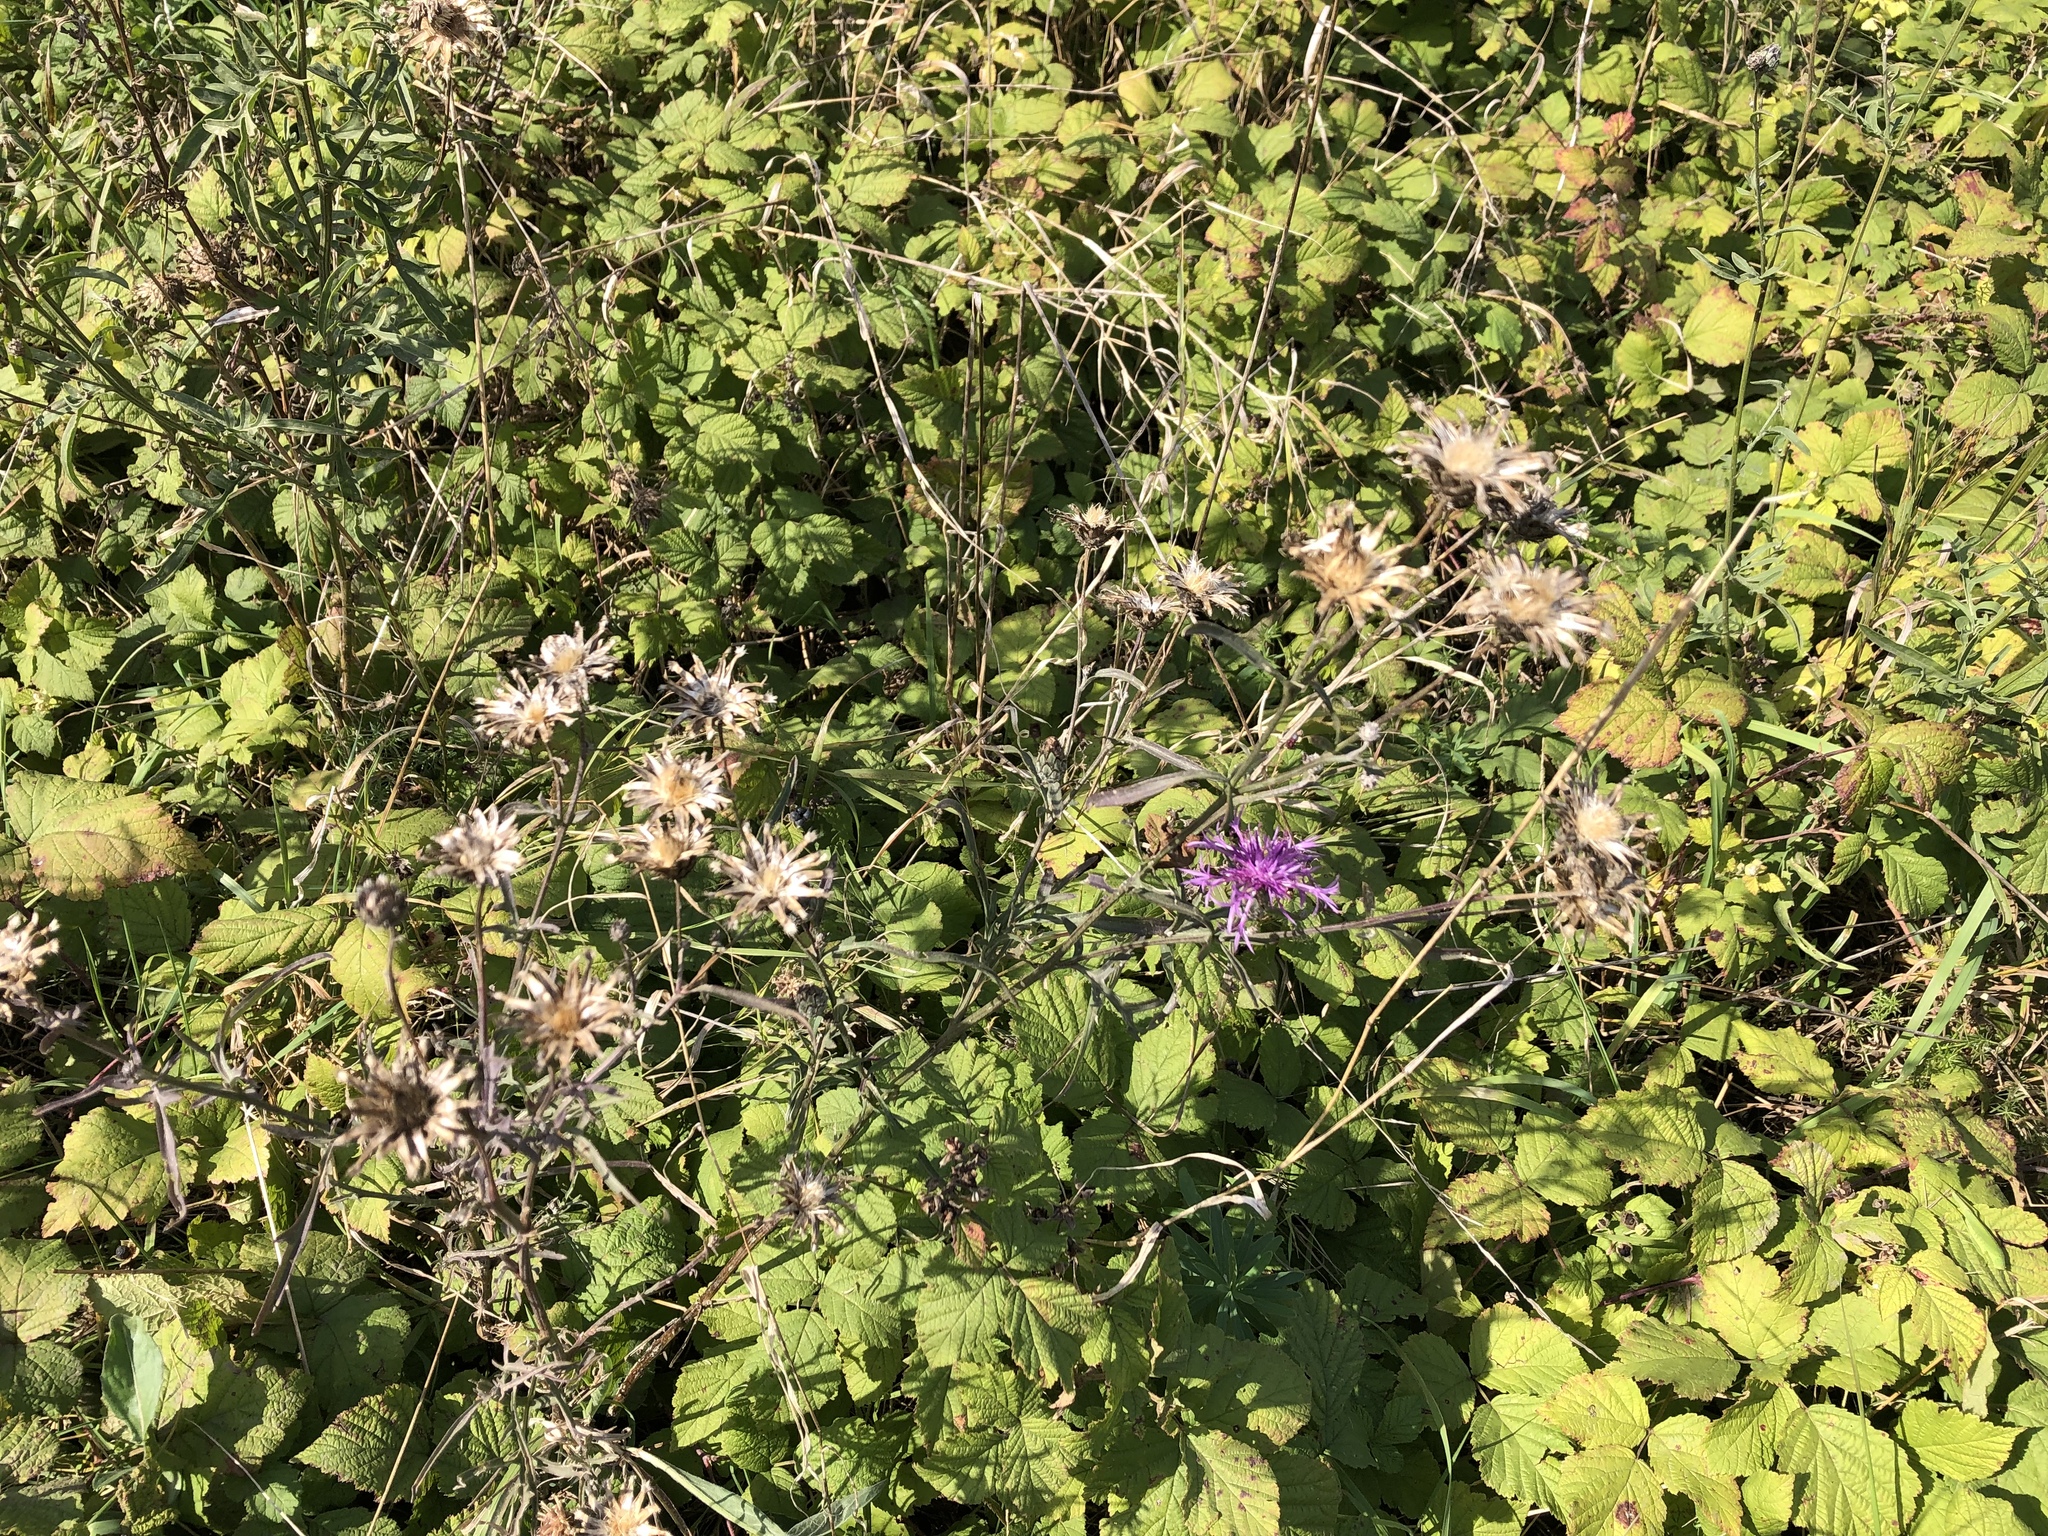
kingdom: Plantae
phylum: Tracheophyta
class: Magnoliopsida
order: Asterales
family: Asteraceae
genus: Centaurea
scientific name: Centaurea scabiosa
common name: Greater knapweed
